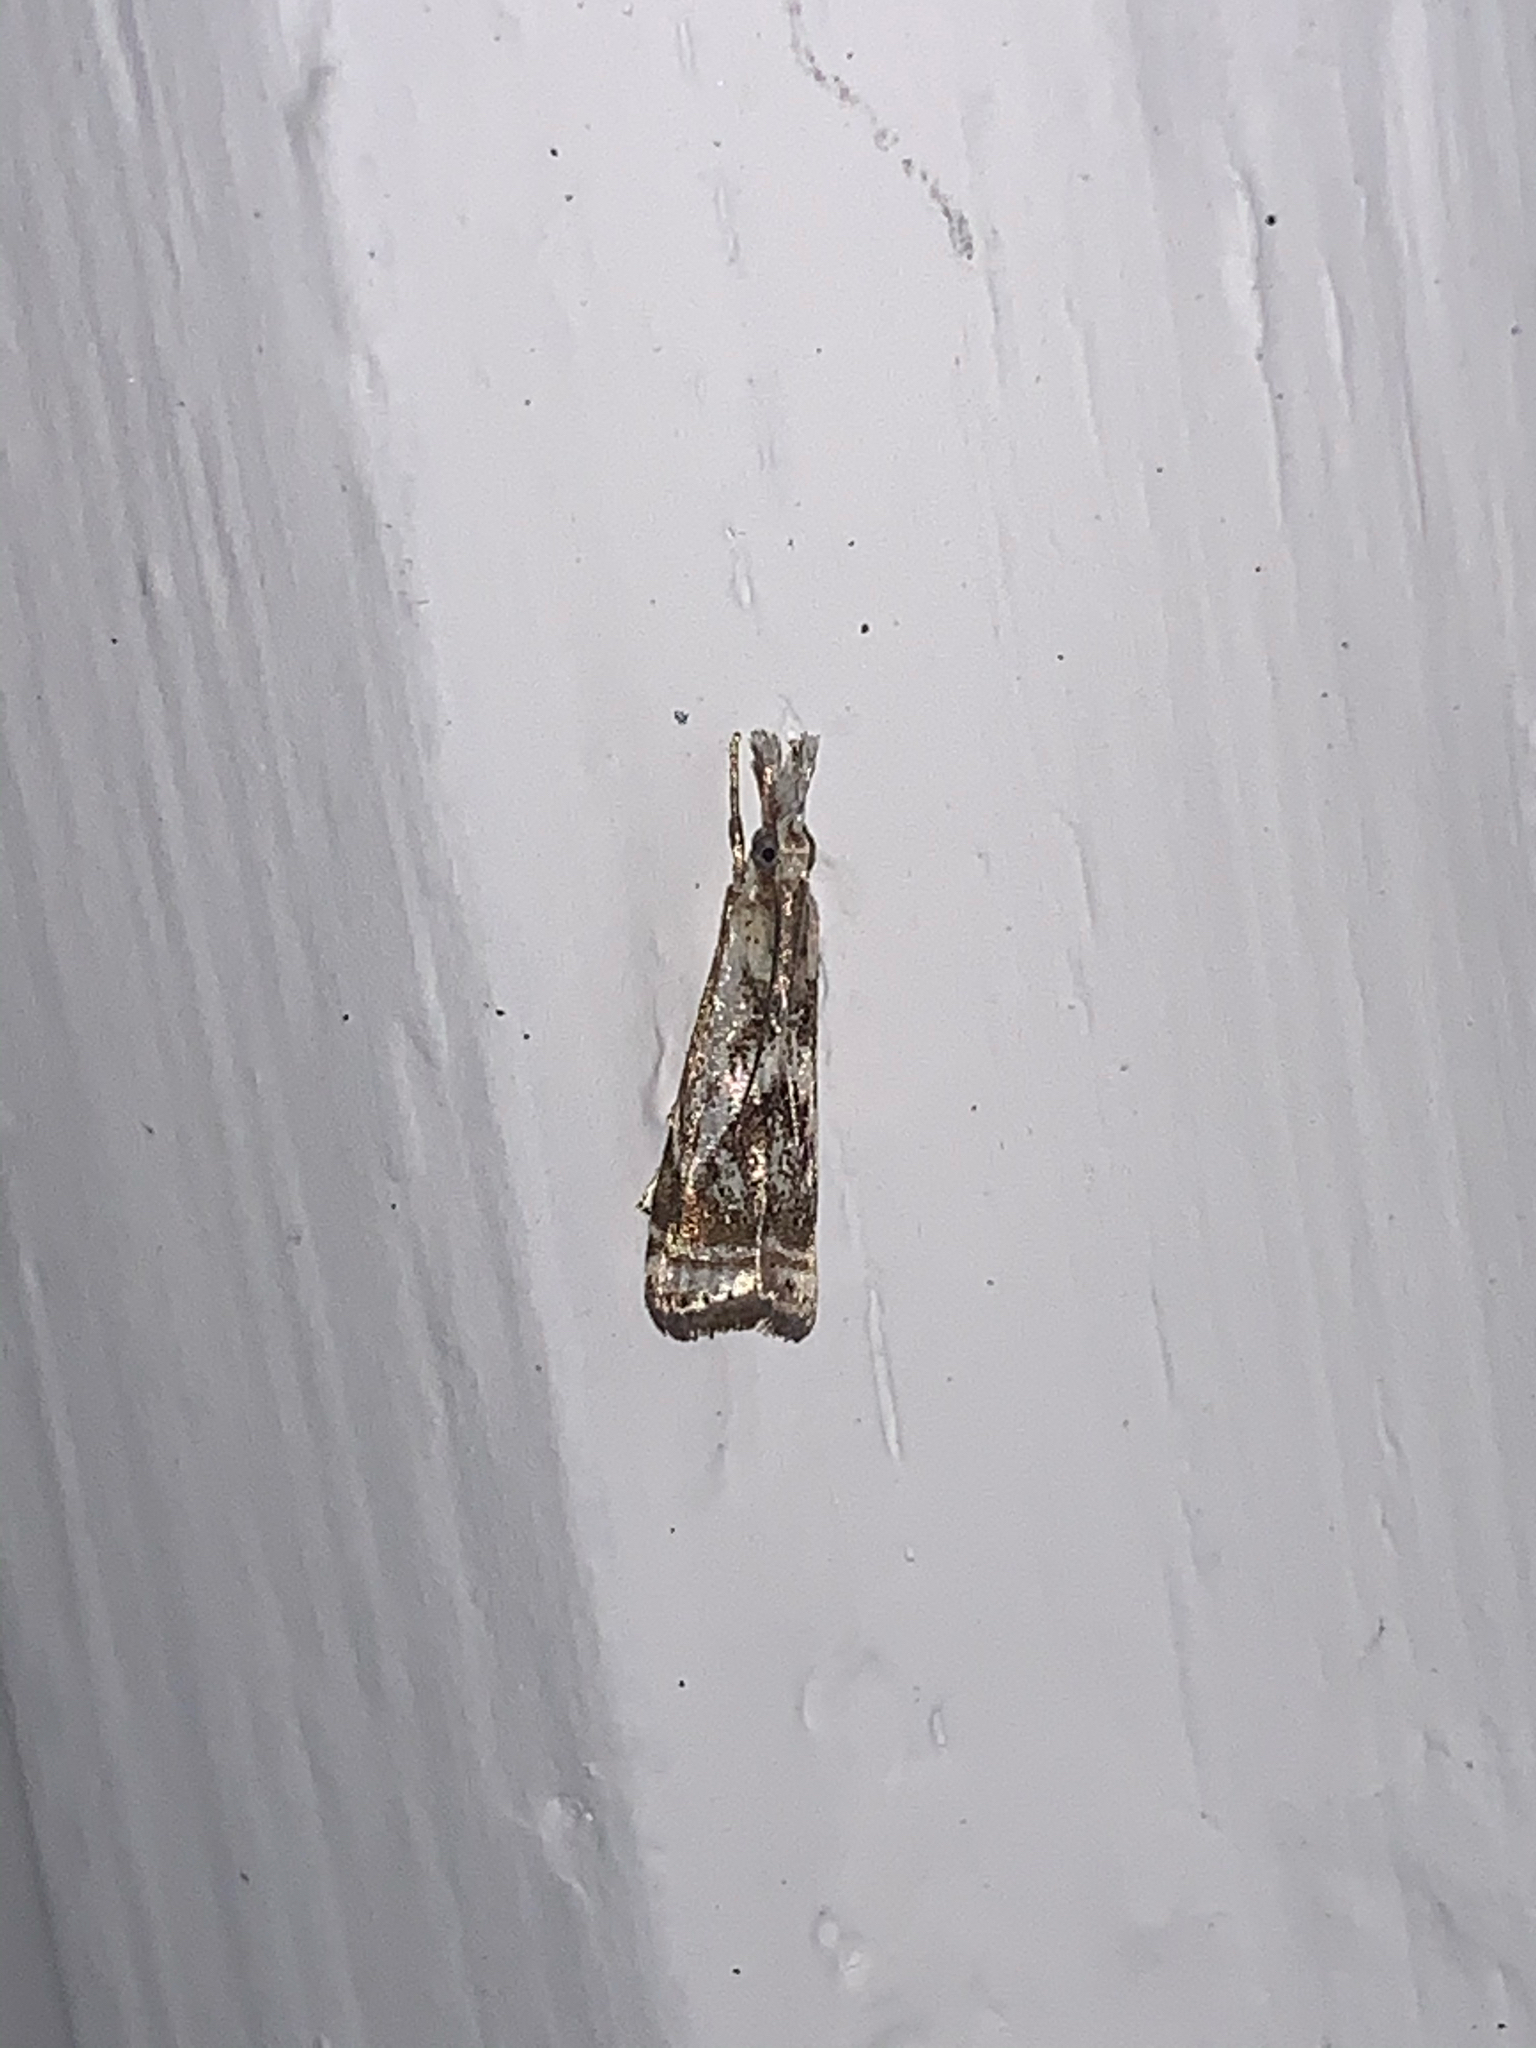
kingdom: Animalia
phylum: Arthropoda
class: Insecta
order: Lepidoptera
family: Crambidae
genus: Microcrambus
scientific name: Microcrambus elegans
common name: Elegant grass-veneer
